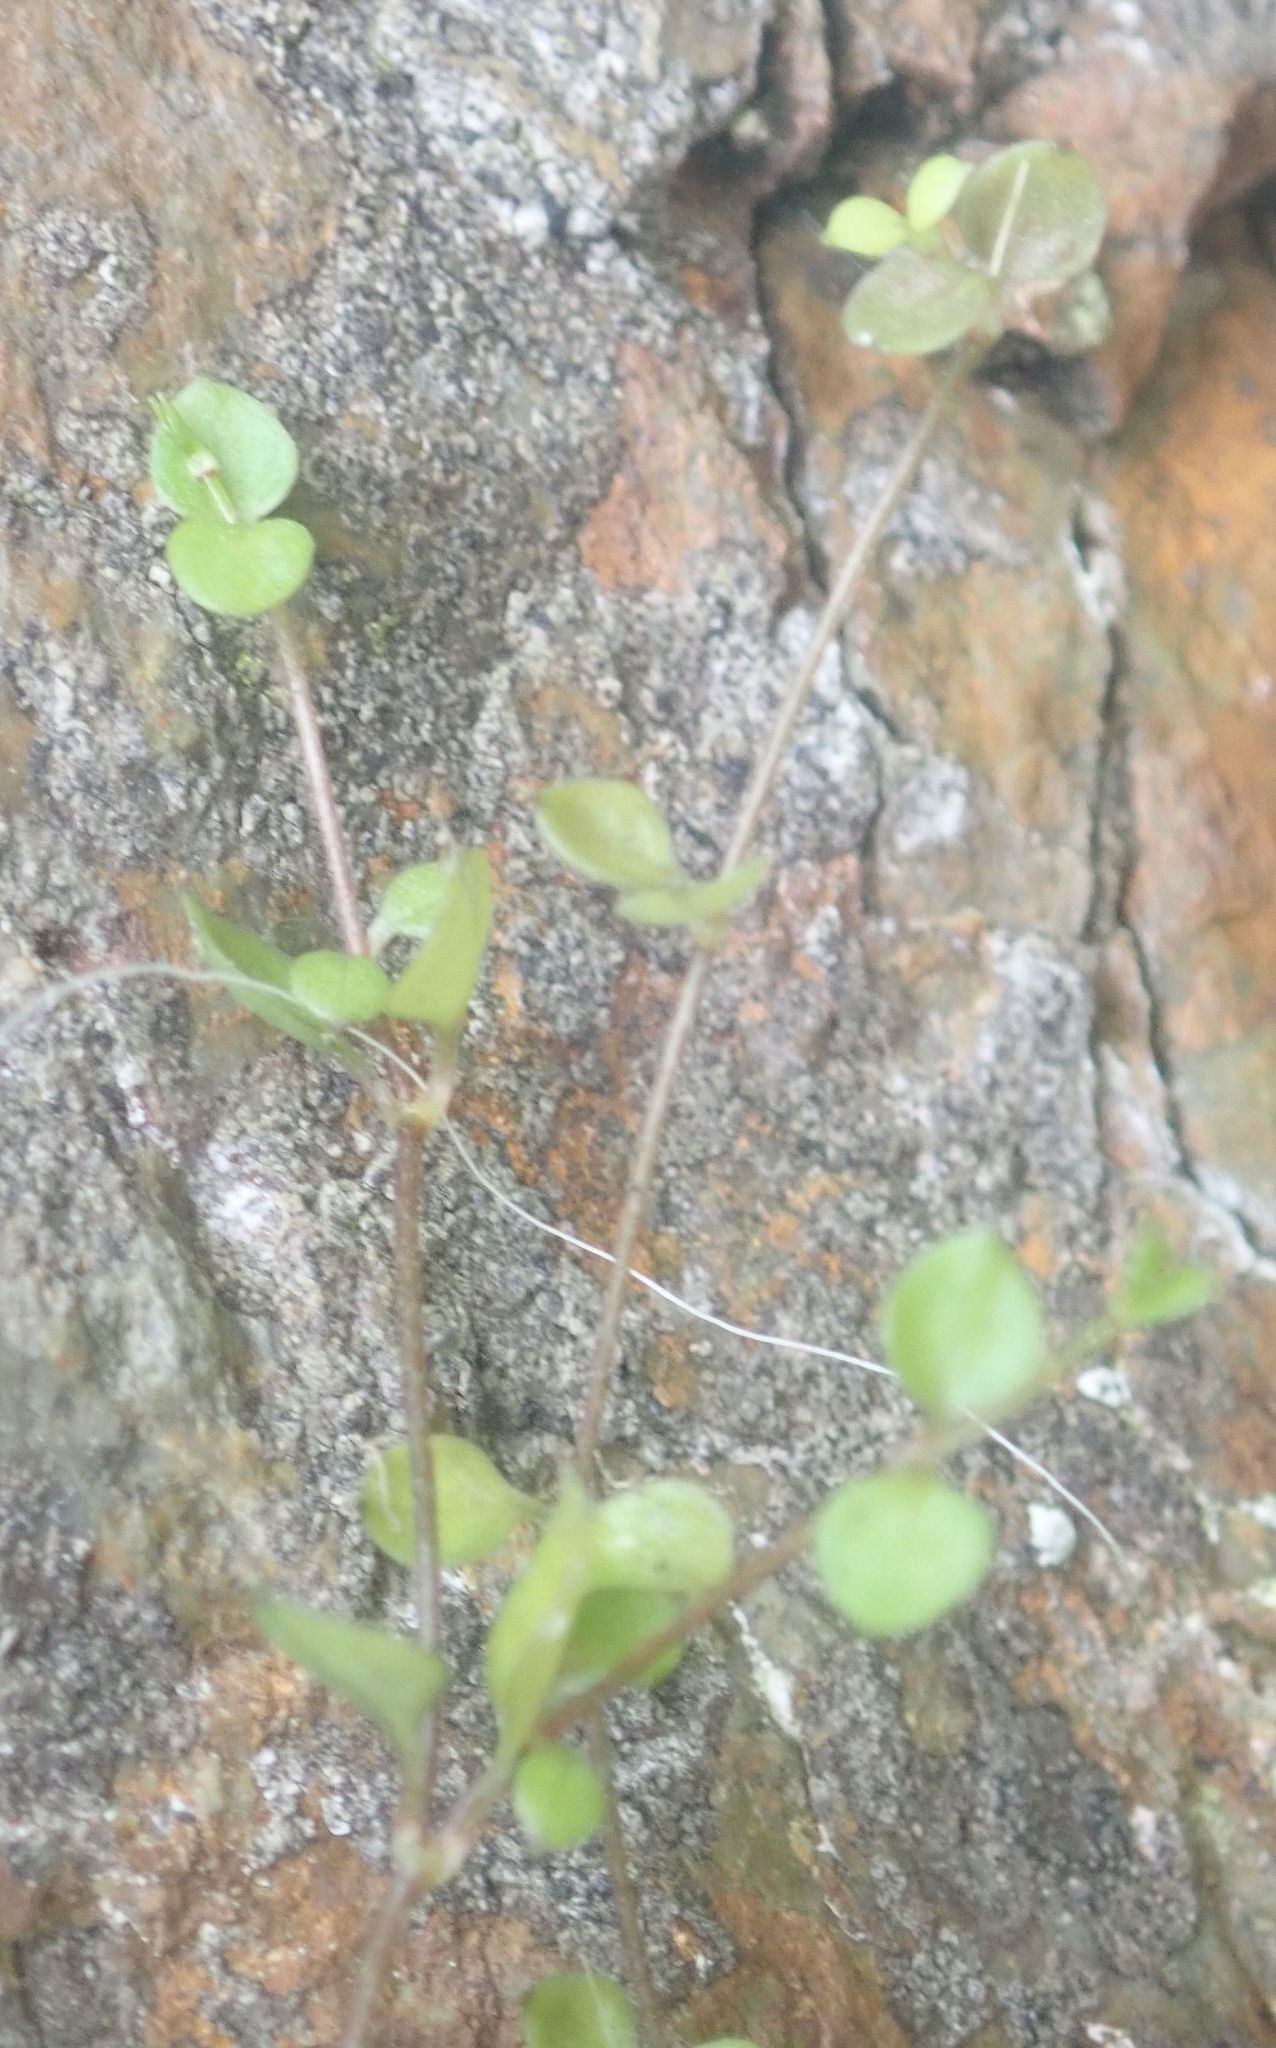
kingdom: Plantae
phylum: Tracheophyta
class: Magnoliopsida
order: Caryophyllales
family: Caryophyllaceae
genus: Stellaria
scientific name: Stellaria parviflora
